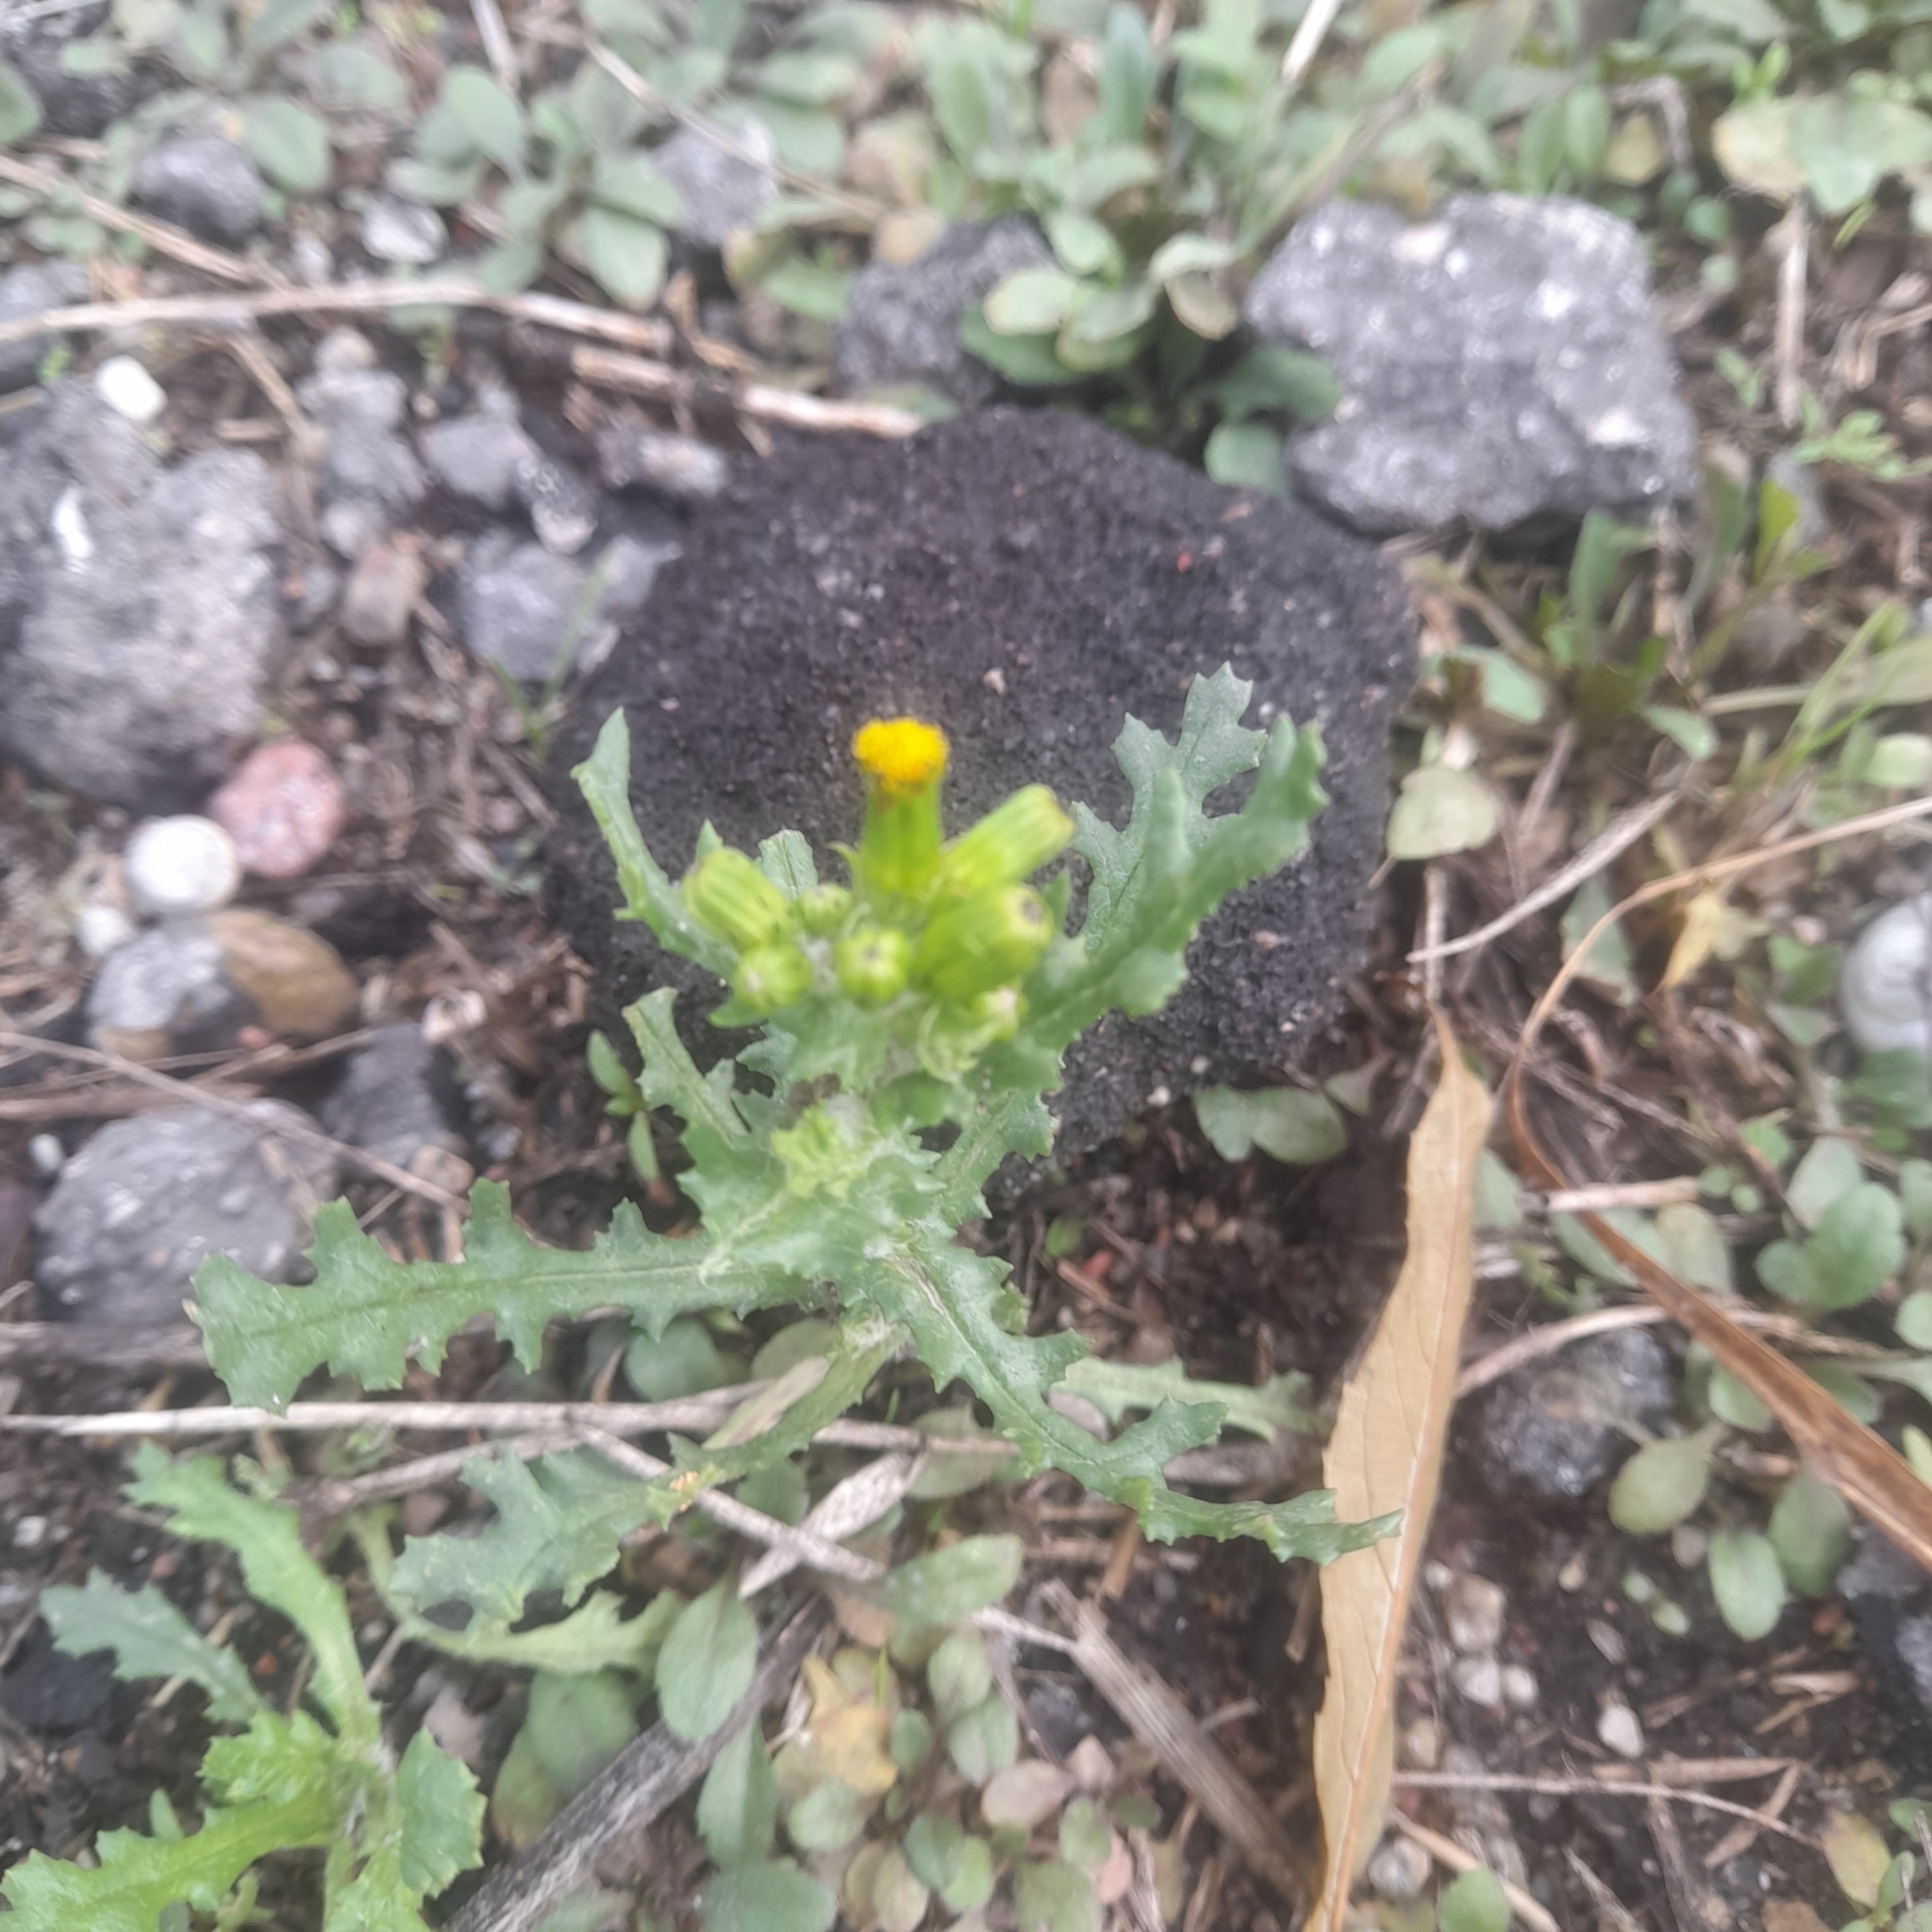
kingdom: Plantae
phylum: Tracheophyta
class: Magnoliopsida
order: Asterales
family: Asteraceae
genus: Senecio
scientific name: Senecio vulgaris
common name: Old-man-in-the-spring
